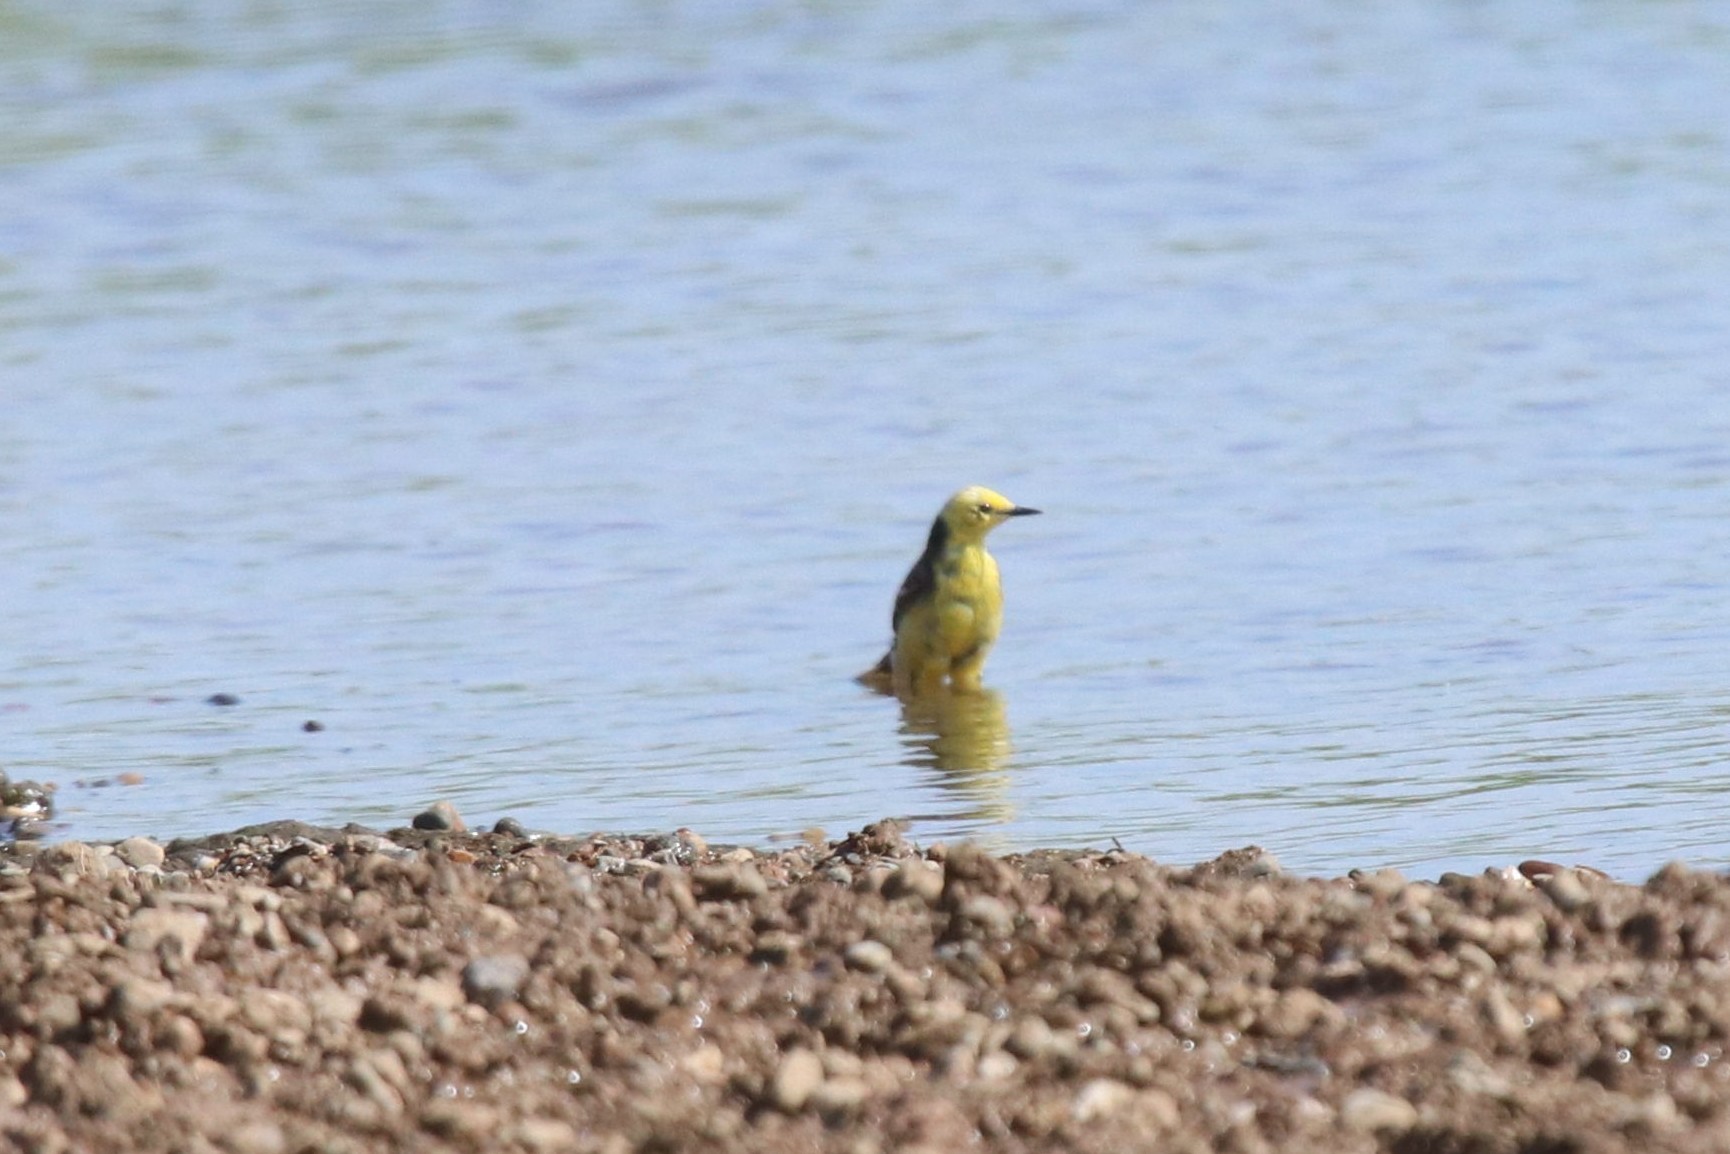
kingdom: Animalia
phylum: Chordata
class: Aves
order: Passeriformes
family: Motacillidae
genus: Motacilla
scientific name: Motacilla citreola
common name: Citrine wagtail
